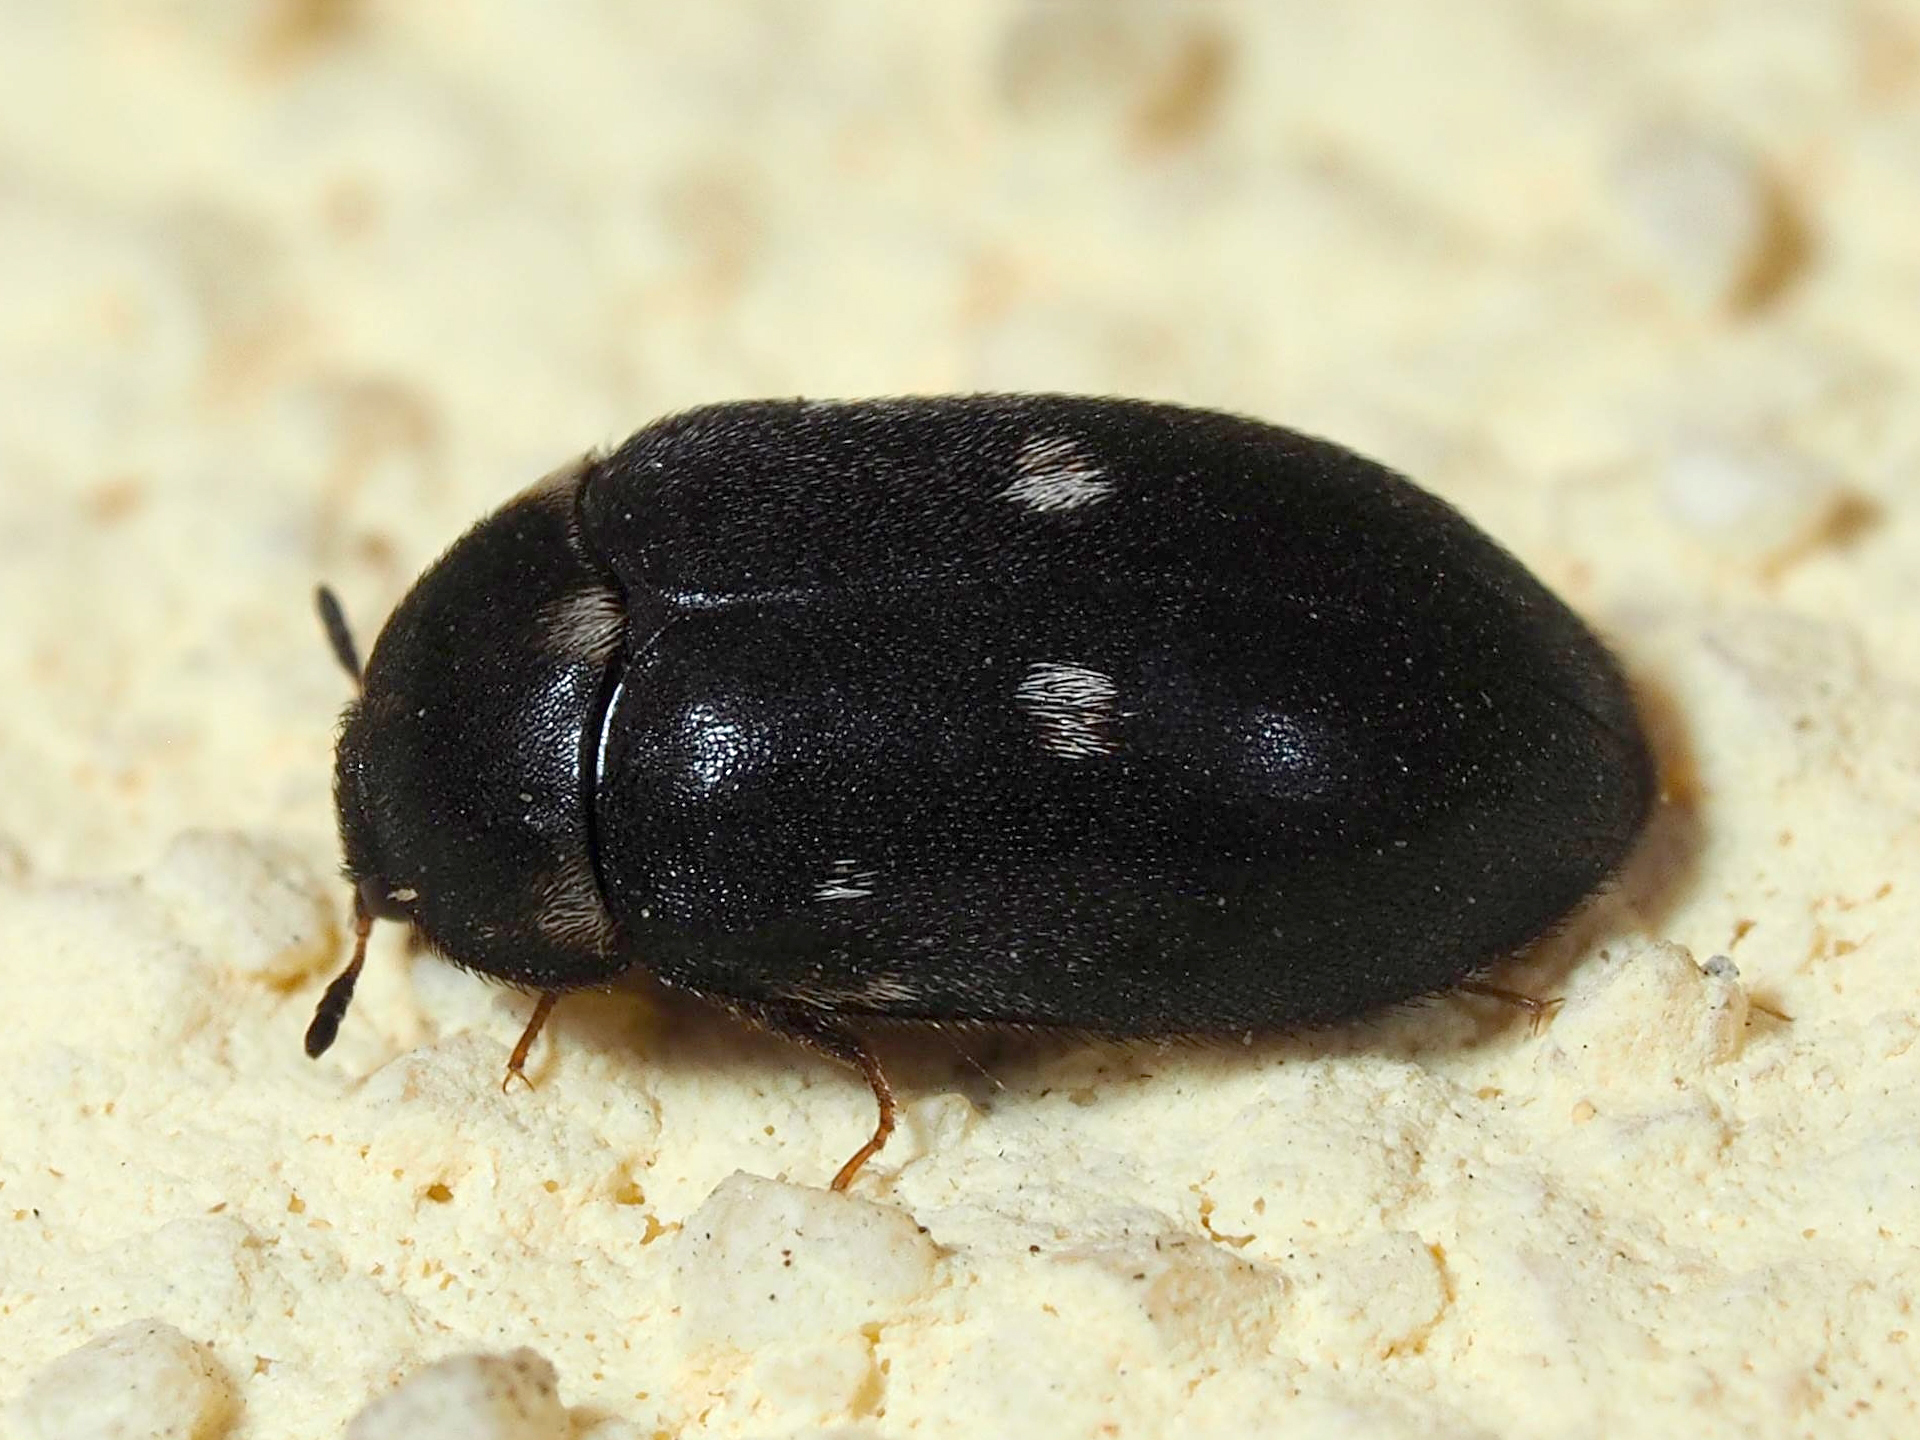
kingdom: Animalia
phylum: Arthropoda
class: Insecta
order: Coleoptera
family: Dermestidae
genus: Attagenus
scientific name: Attagenus pellio
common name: Two-spotted carpet beetle
